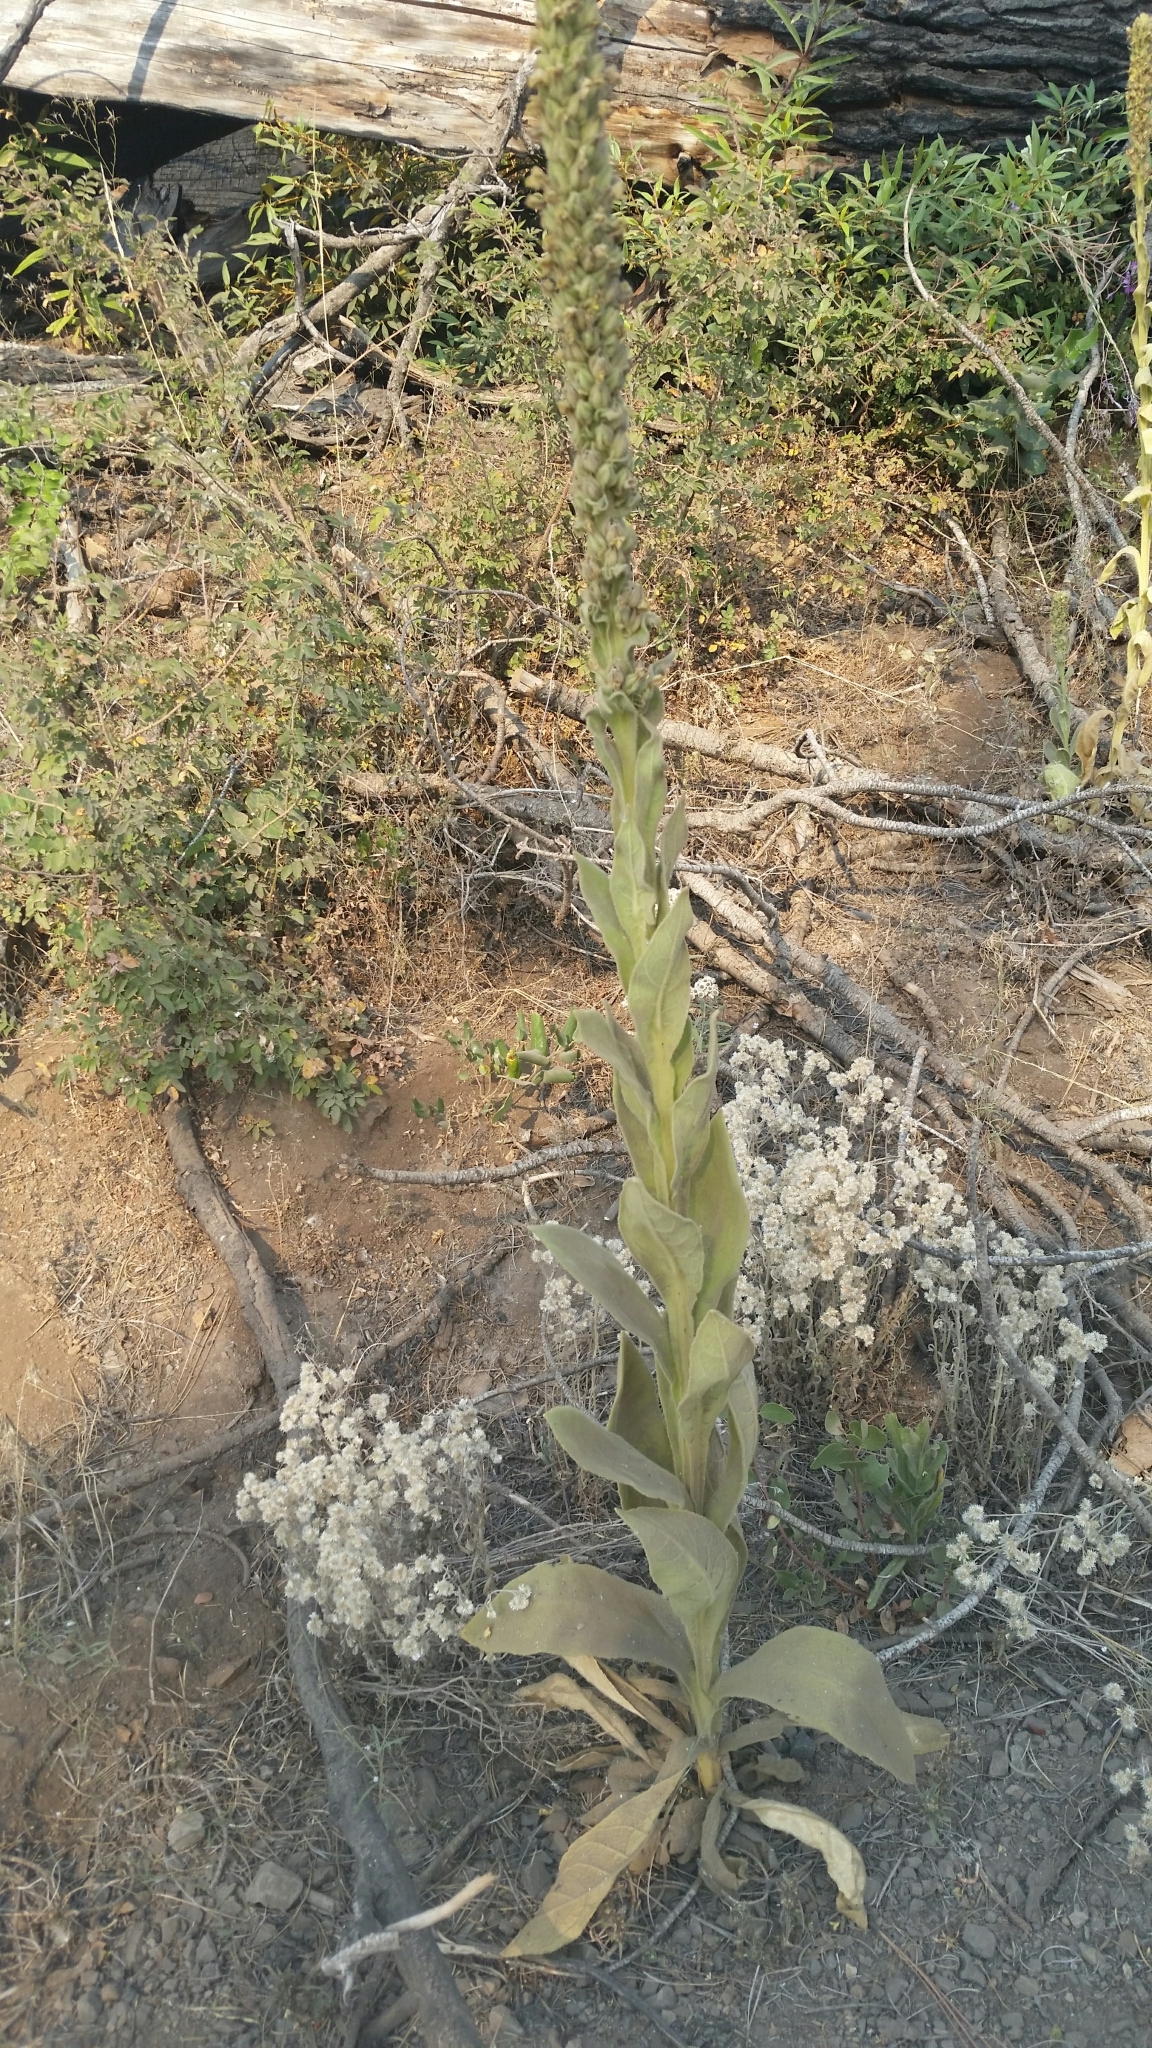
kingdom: Plantae
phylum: Tracheophyta
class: Magnoliopsida
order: Lamiales
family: Scrophulariaceae
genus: Verbascum
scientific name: Verbascum thapsus
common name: Common mullein
